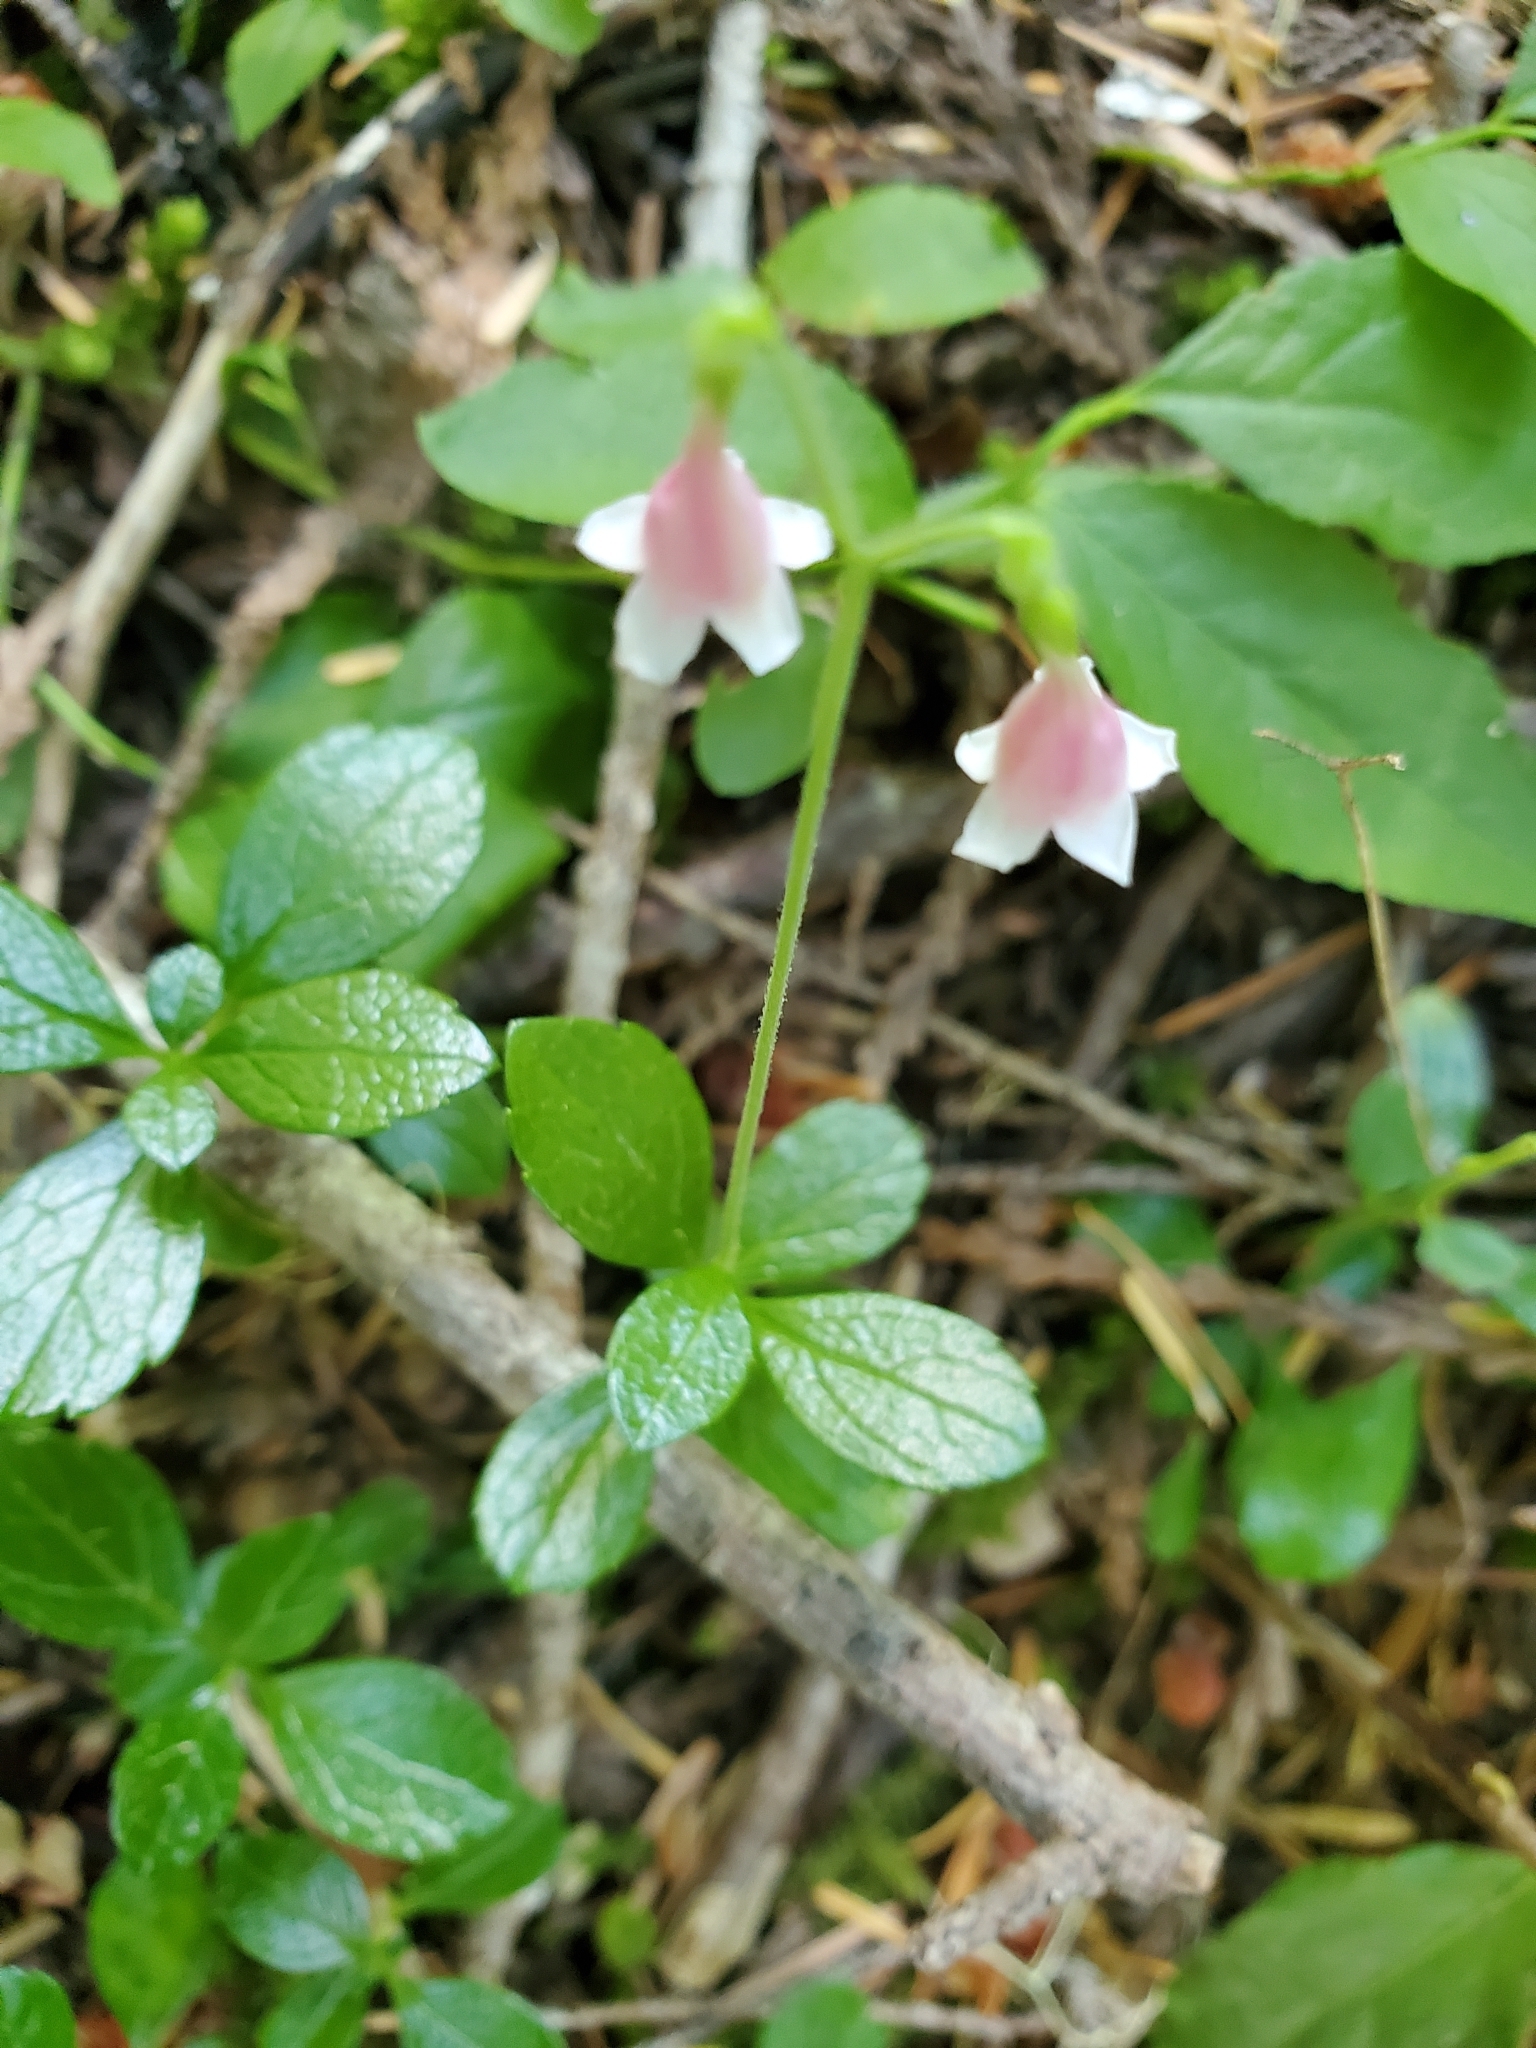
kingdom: Plantae
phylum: Tracheophyta
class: Magnoliopsida
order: Dipsacales
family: Caprifoliaceae
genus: Linnaea
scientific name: Linnaea borealis
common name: Twinflower
